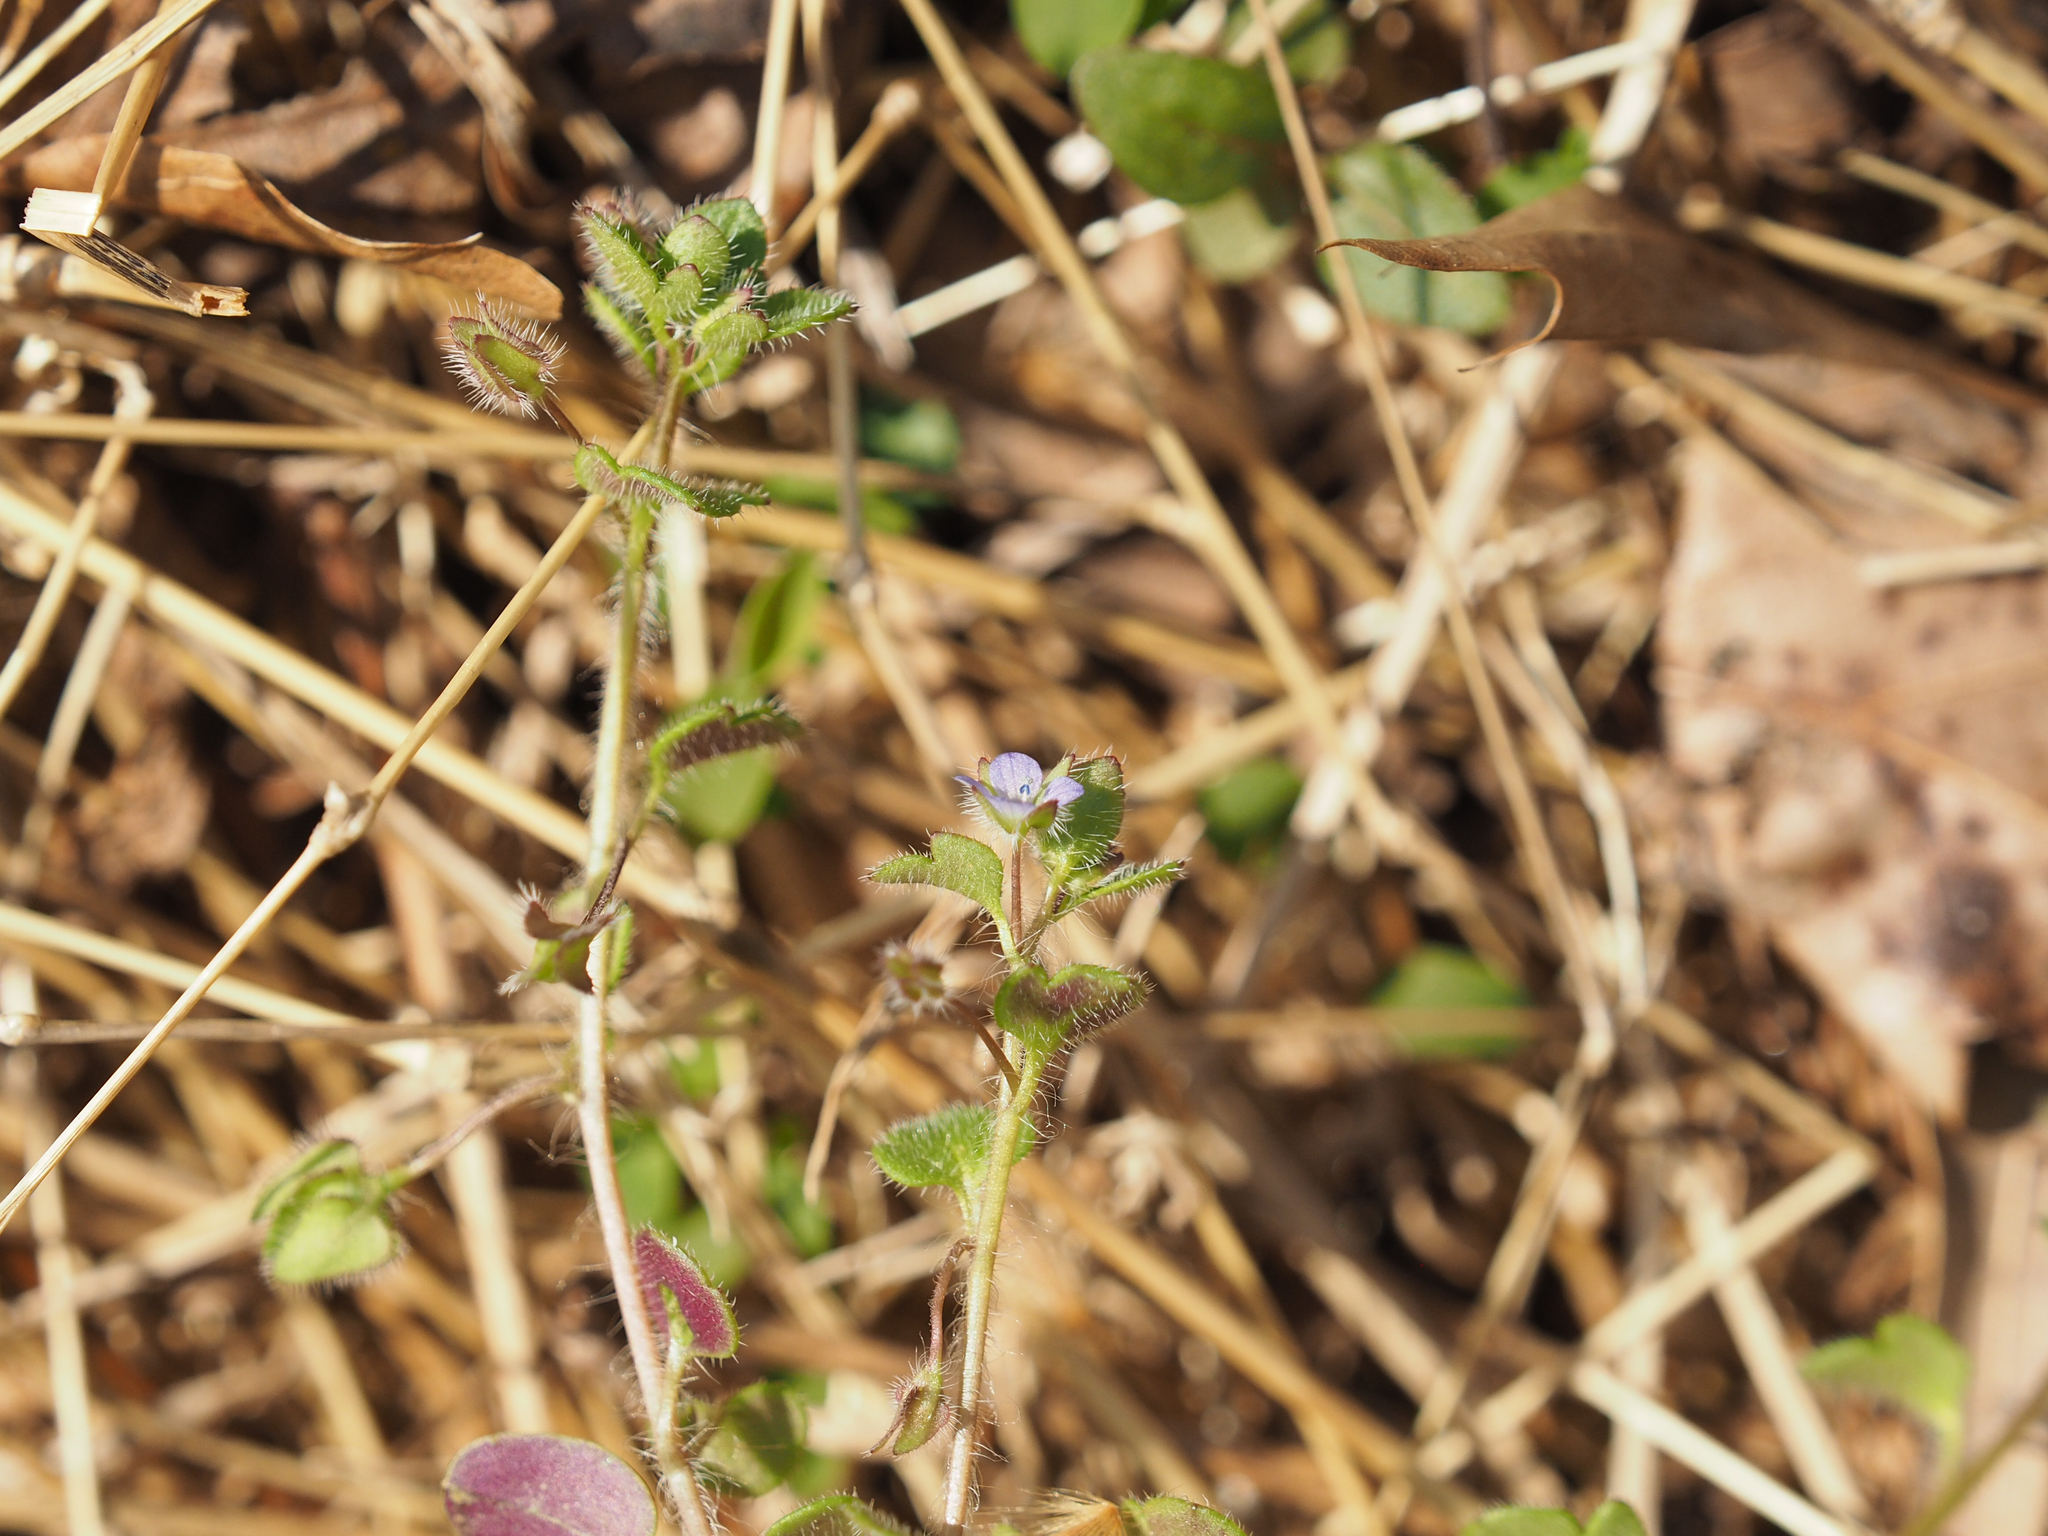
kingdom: Plantae
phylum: Tracheophyta
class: Magnoliopsida
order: Lamiales
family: Plantaginaceae
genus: Veronica
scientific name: Veronica hederifolia
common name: Ivy-leaved speedwell
